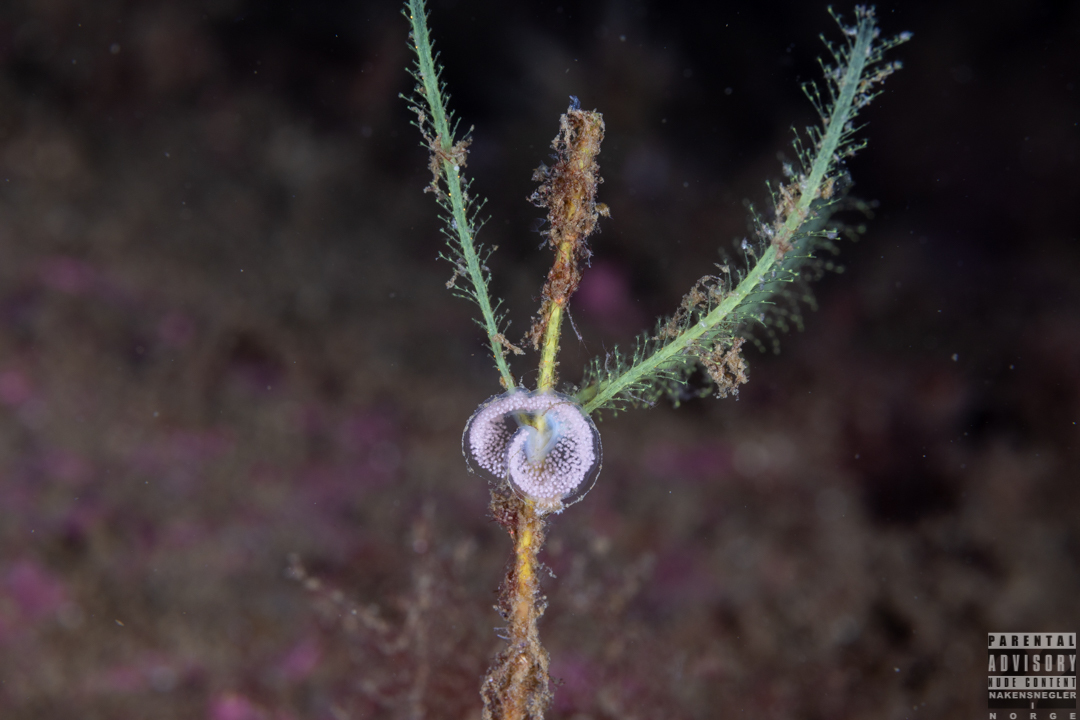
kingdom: Animalia
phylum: Mollusca
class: Gastropoda
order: Nudibranchia
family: Eubranchidae
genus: Eubranchus
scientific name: Eubranchus tricolor
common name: Painted balloon aeolis
